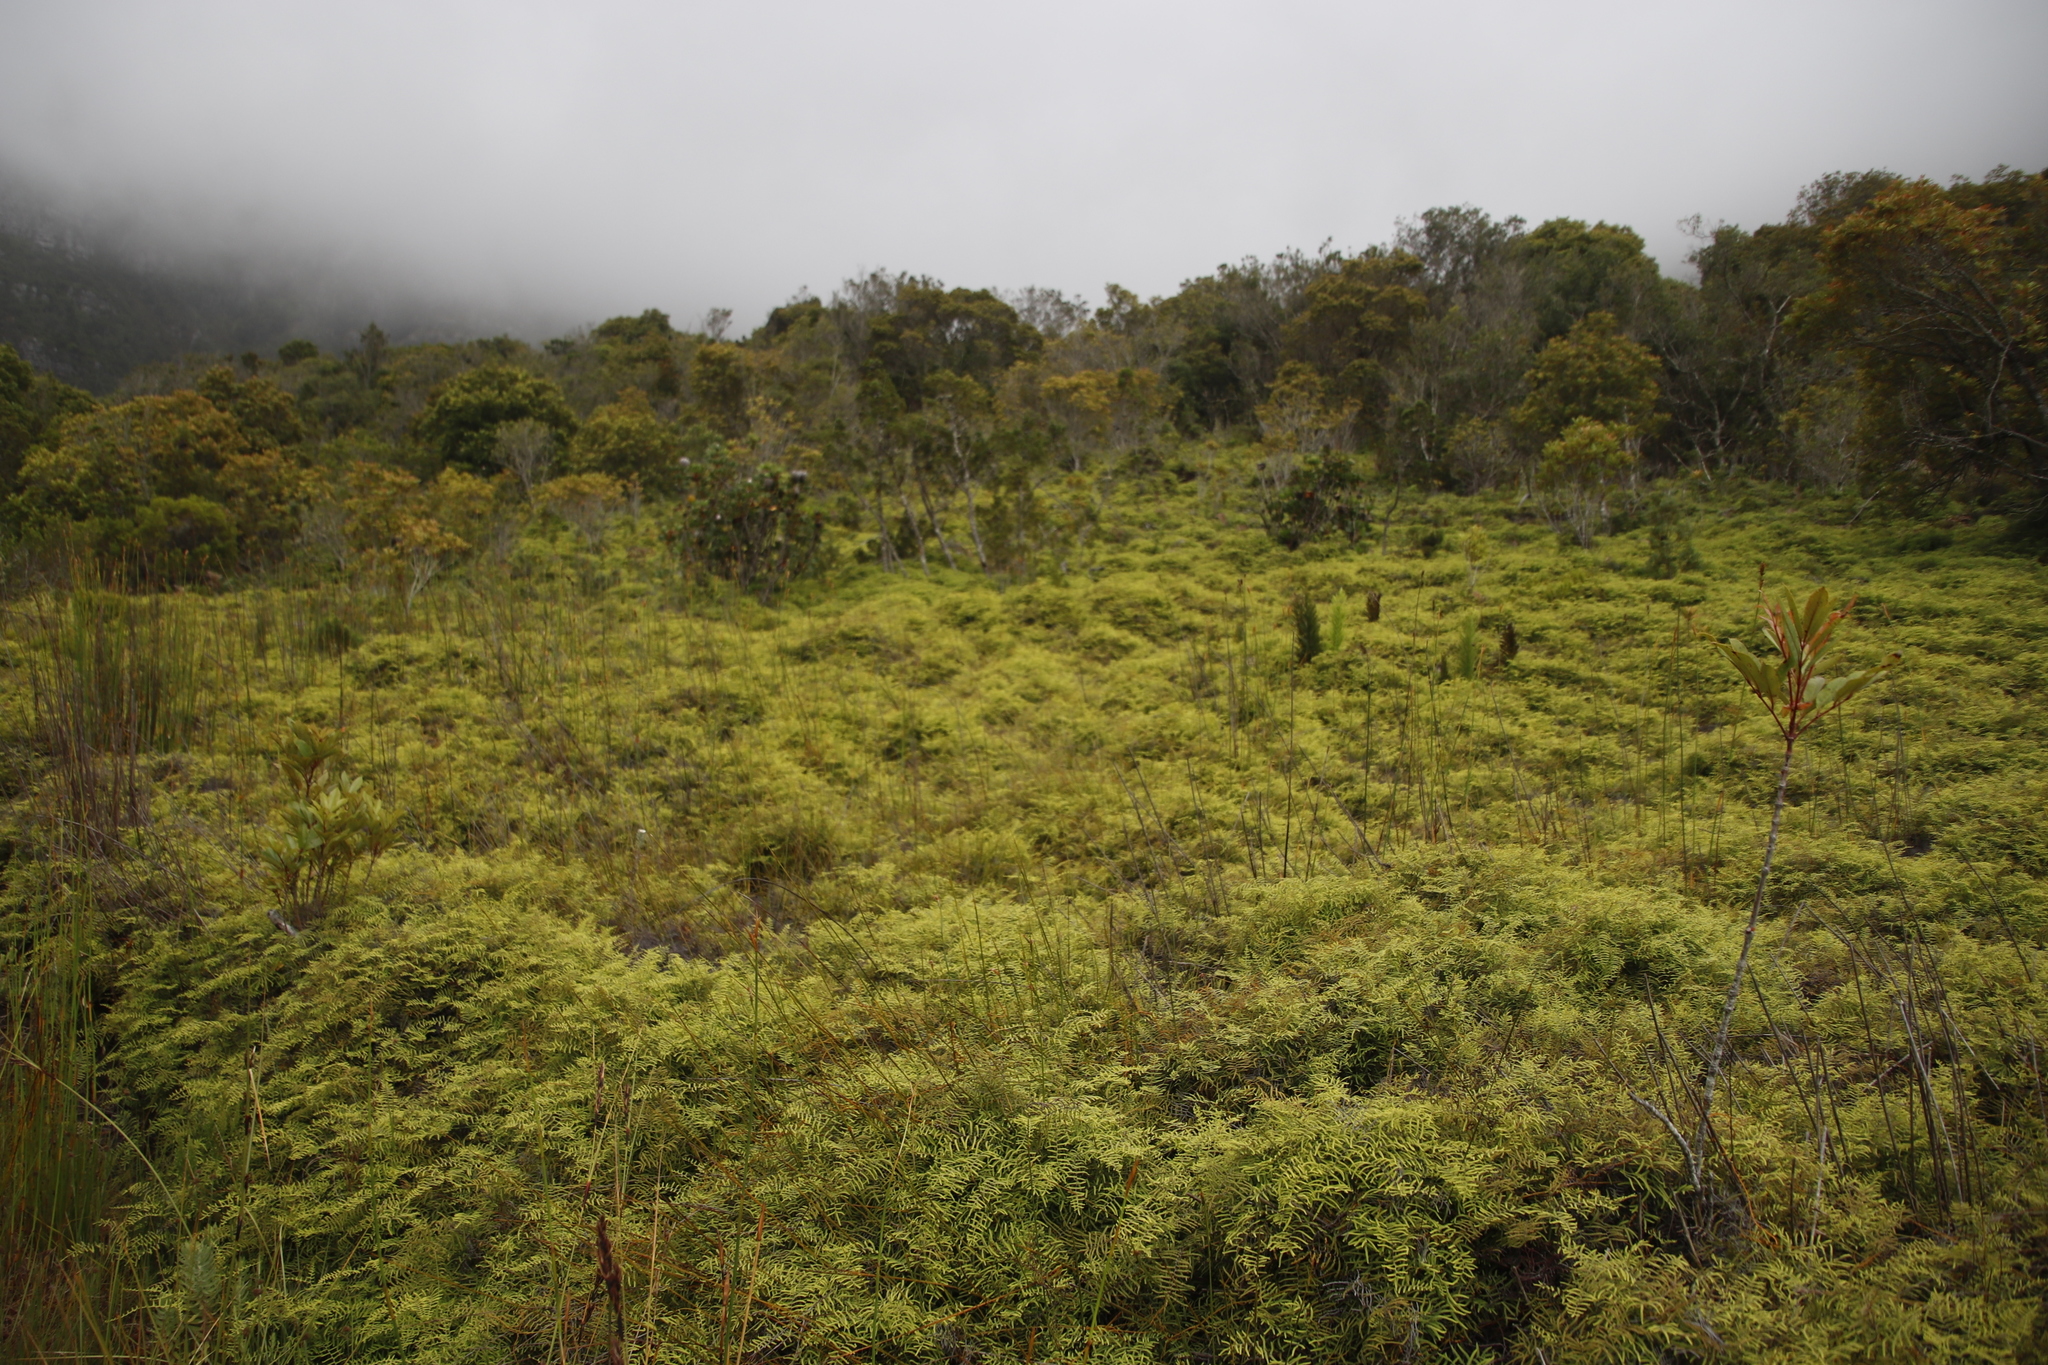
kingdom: Plantae
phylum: Tracheophyta
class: Polypodiopsida
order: Gleicheniales
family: Gleicheniaceae
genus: Gleichenia
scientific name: Gleichenia polypodioides
